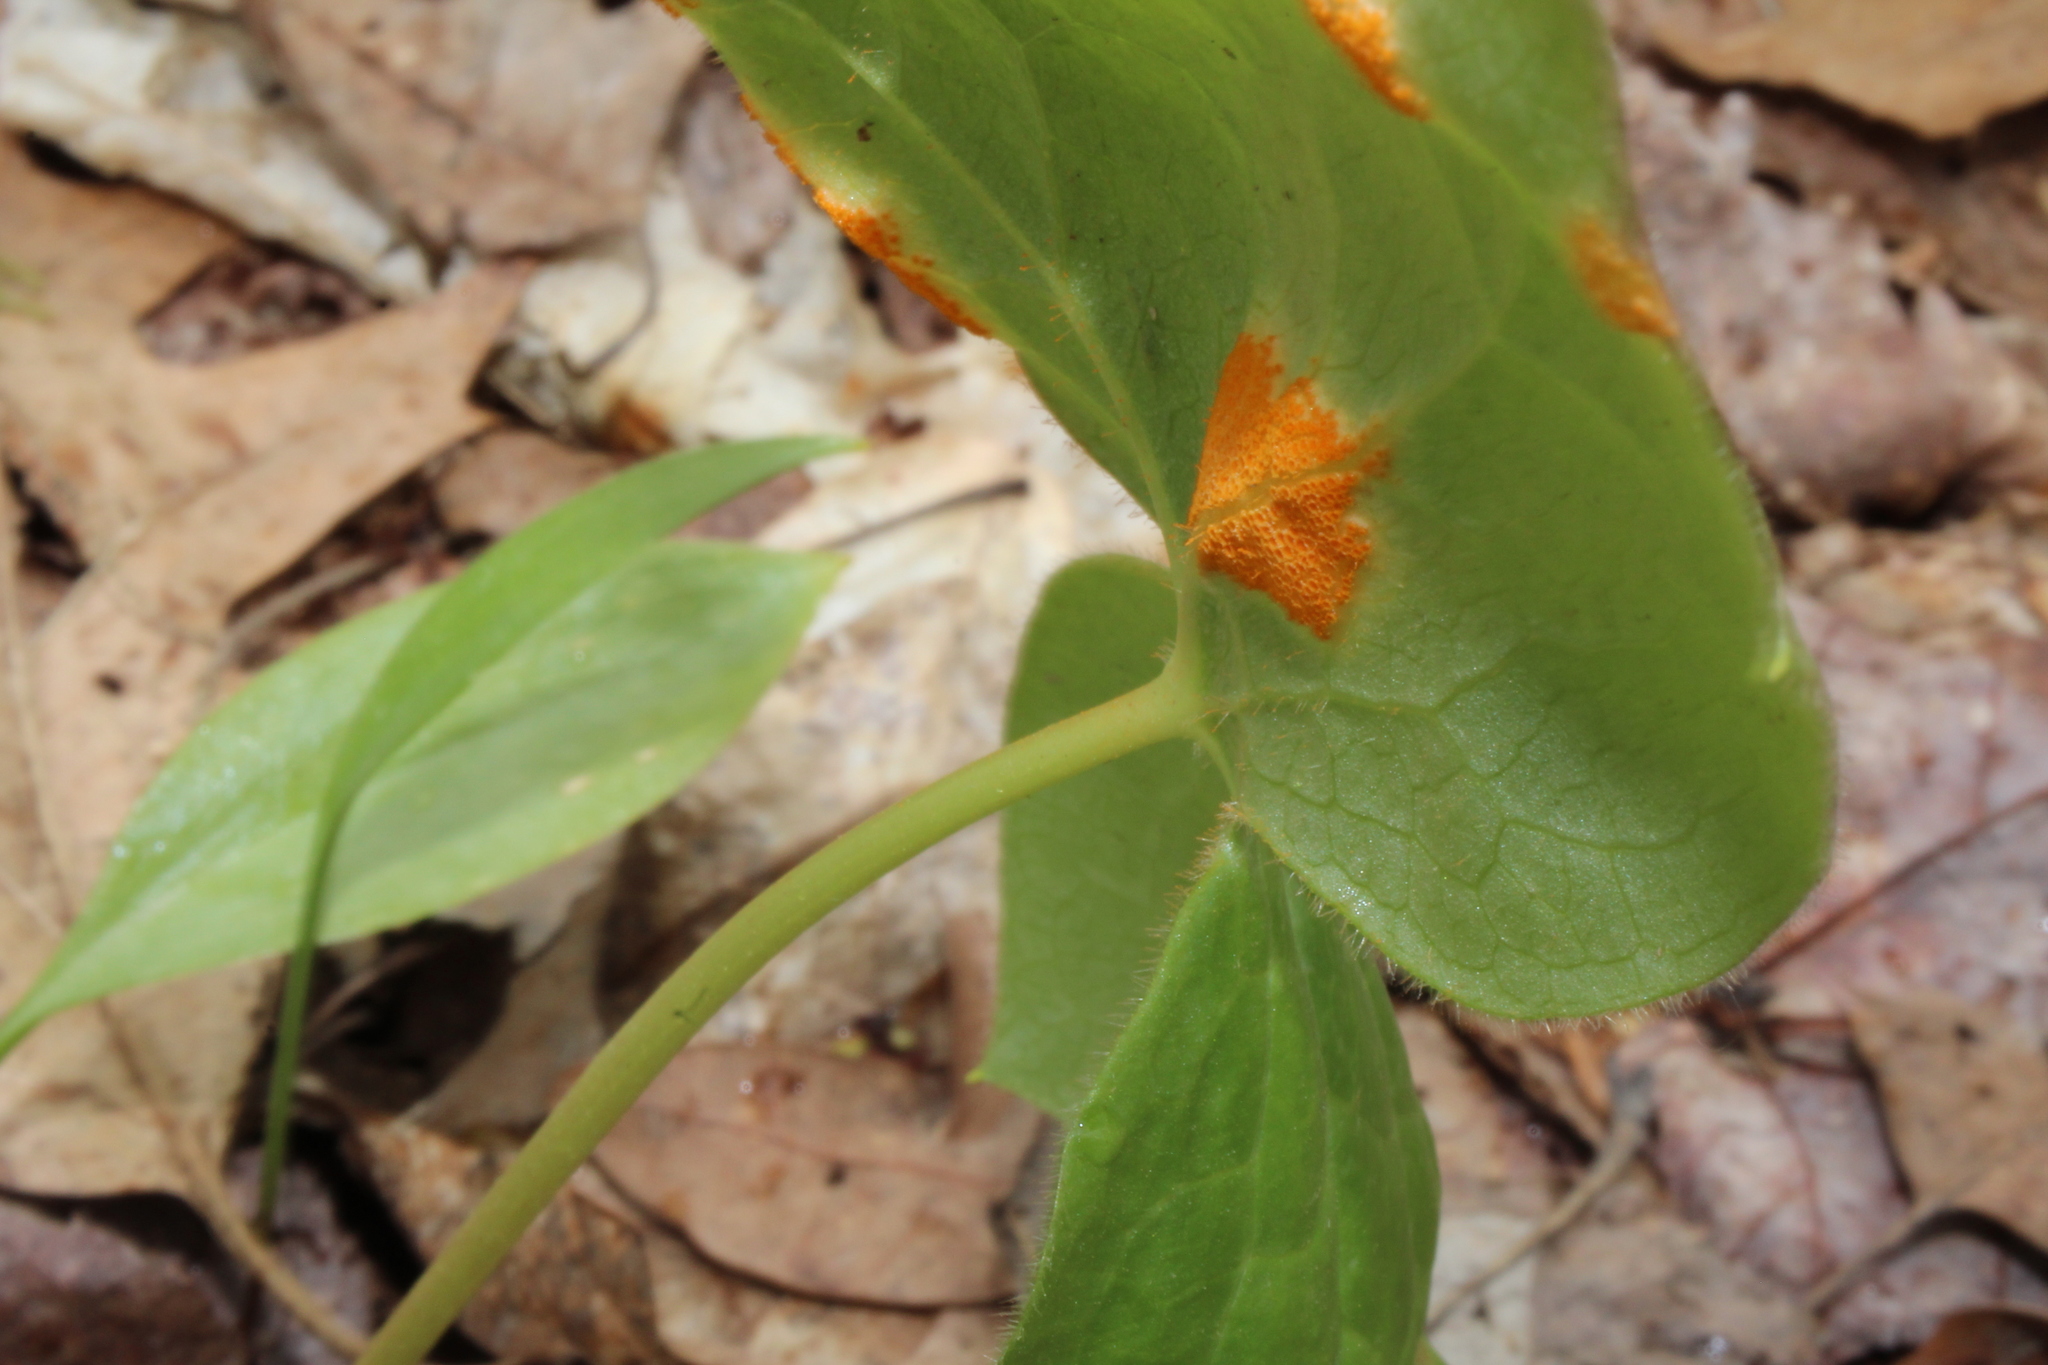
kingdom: Fungi
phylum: Basidiomycota
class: Pucciniomycetes
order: Pucciniales
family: Pucciniaceae
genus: Puccinia
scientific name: Puccinia podophylli
